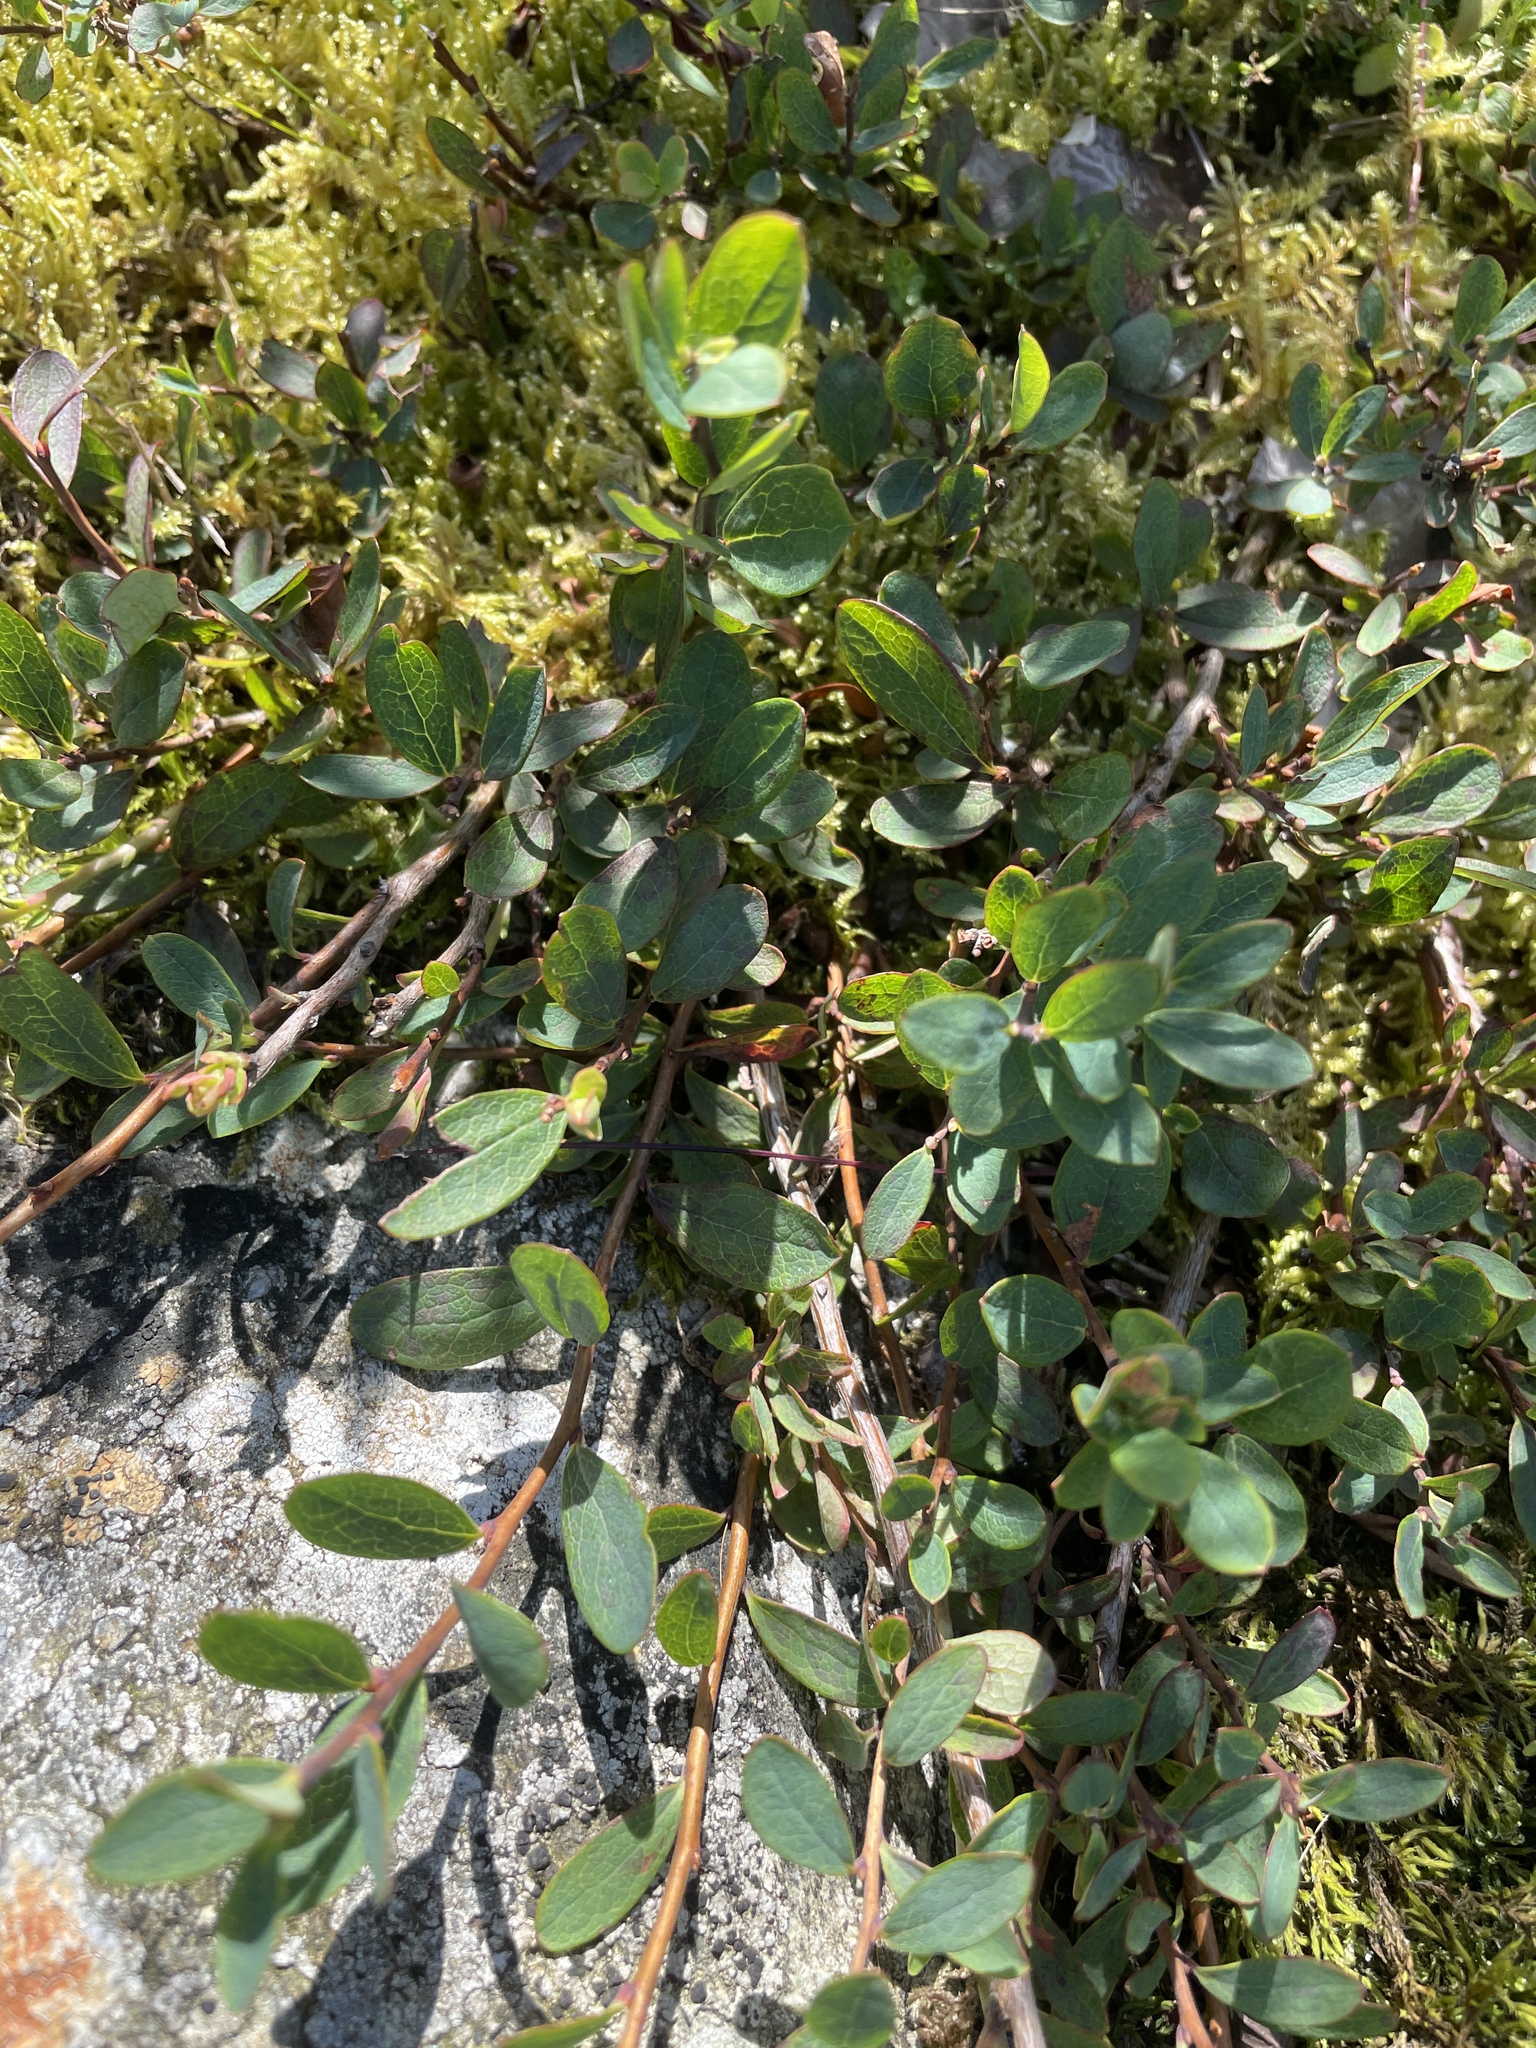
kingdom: Plantae
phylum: Tracheophyta
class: Magnoliopsida
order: Ericales
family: Ericaceae
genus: Vaccinium
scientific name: Vaccinium uliginosum
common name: Bog bilberry
